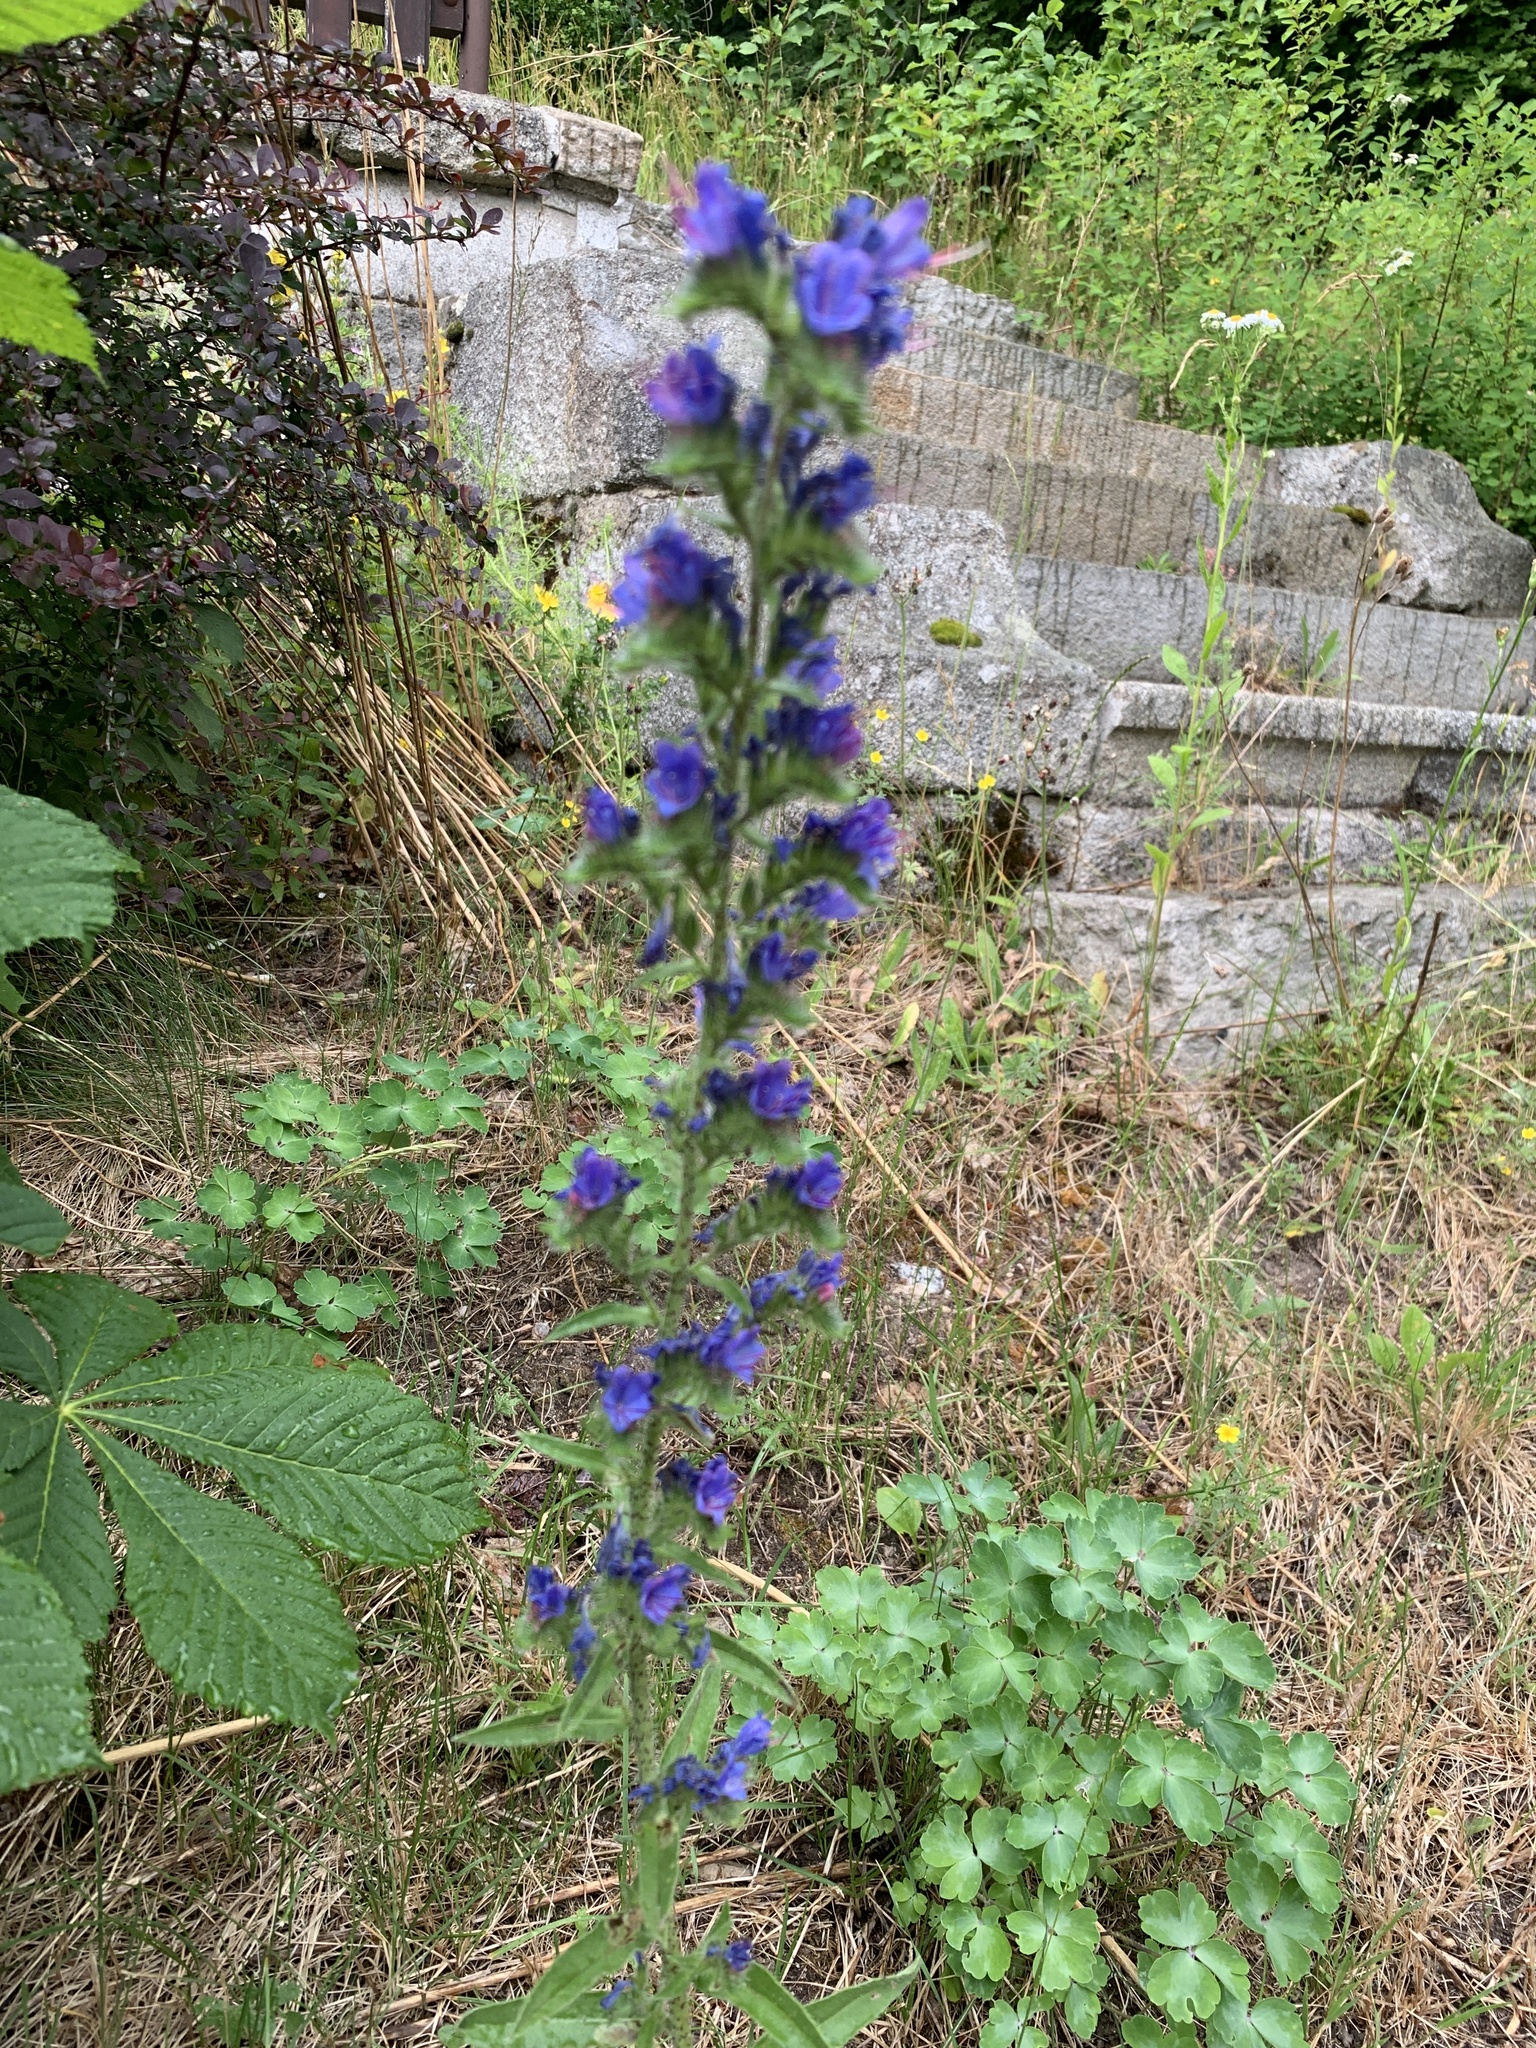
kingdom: Plantae
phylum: Tracheophyta
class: Magnoliopsida
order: Boraginales
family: Boraginaceae
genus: Echium
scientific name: Echium vulgare
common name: Common viper's bugloss
